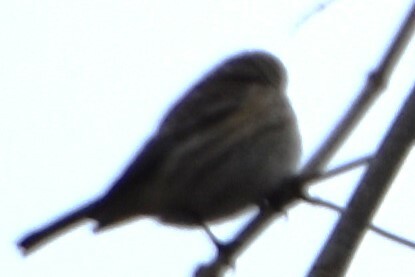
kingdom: Animalia
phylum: Chordata
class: Aves
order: Passeriformes
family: Parulidae
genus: Setophaga
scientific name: Setophaga coronata
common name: Myrtle warbler
